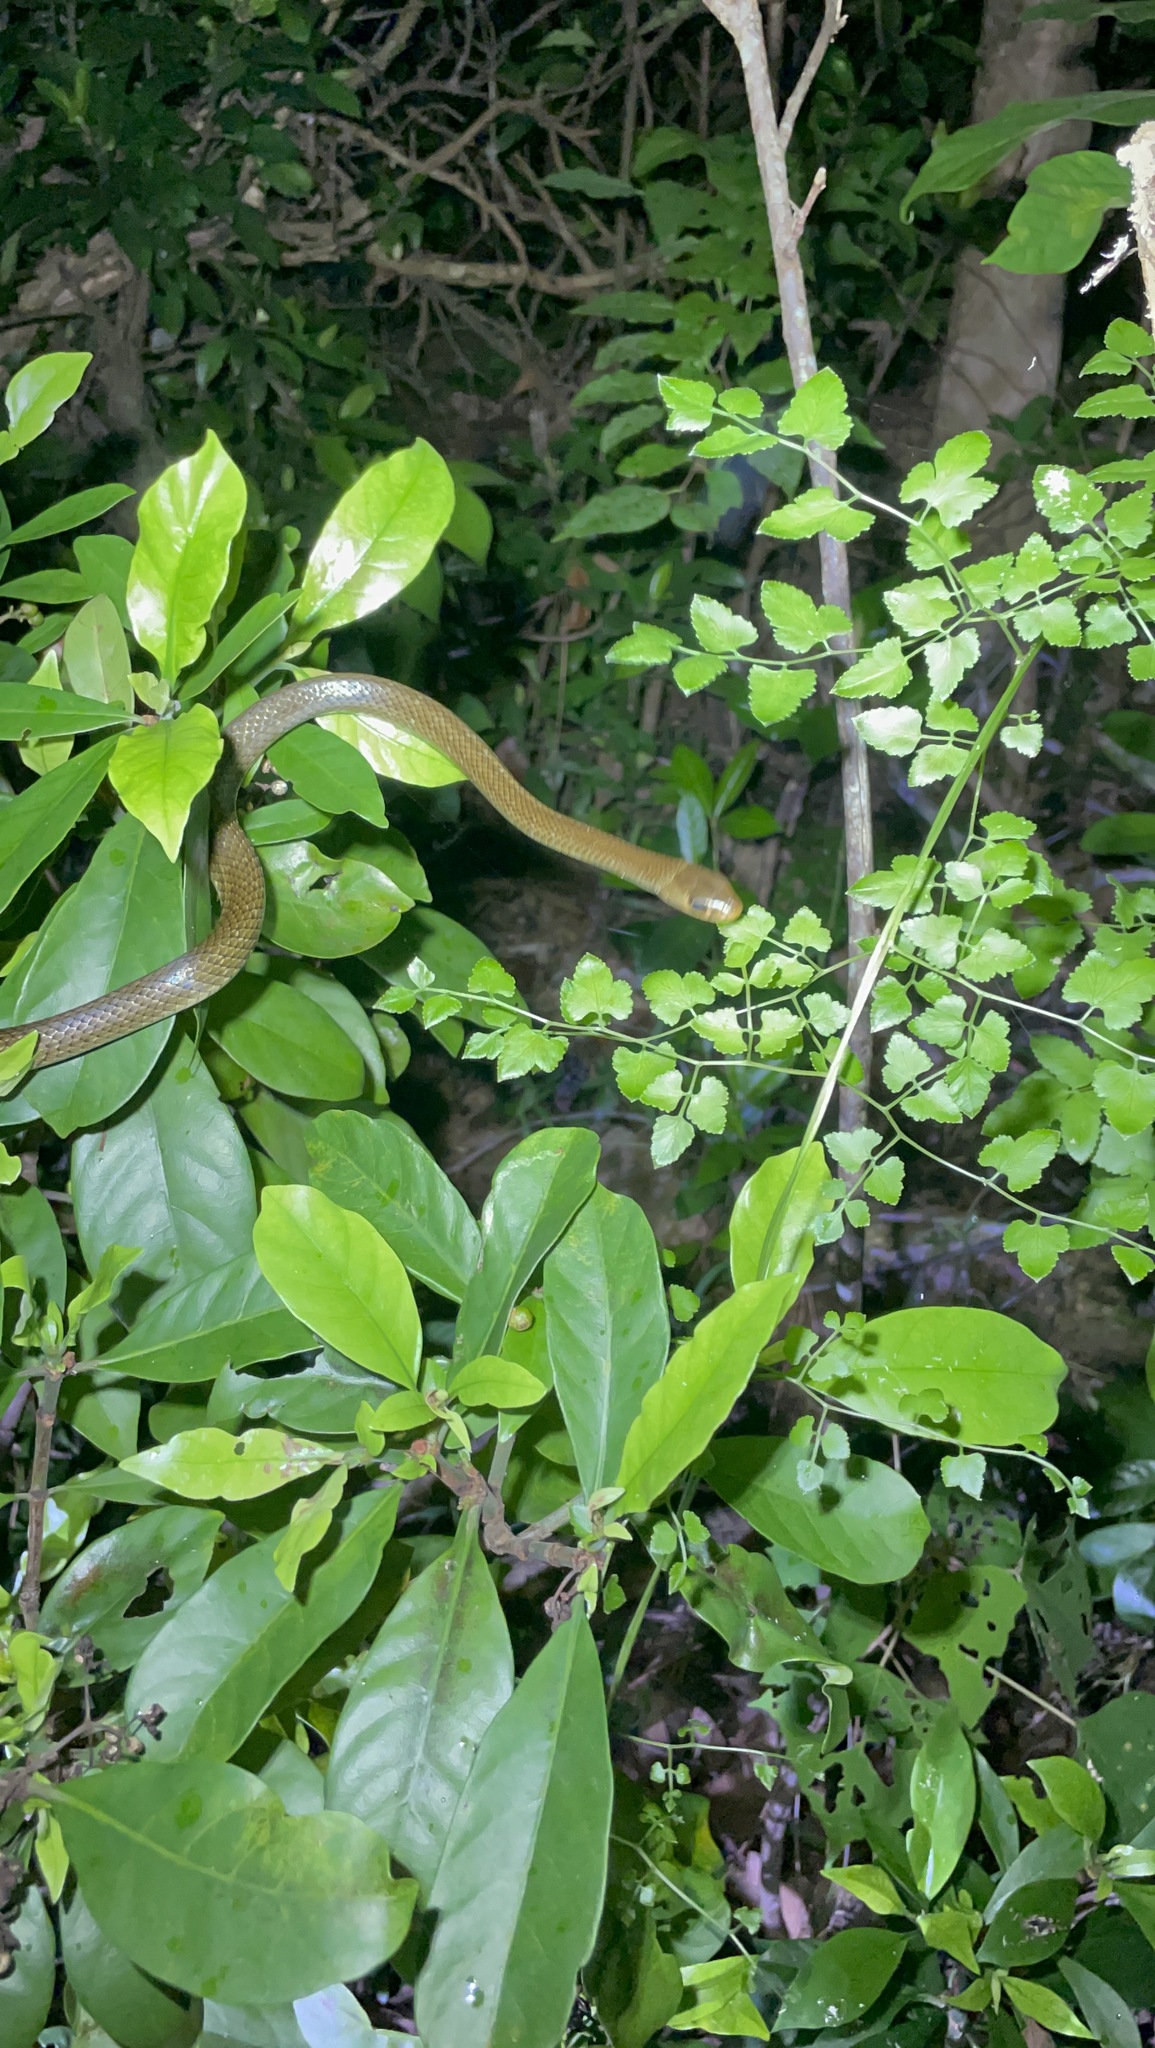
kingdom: Animalia
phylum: Chordata
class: Squamata
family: Colubridae
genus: Ptyas
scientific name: Ptyas korros
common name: Indo-chinese rat snake
